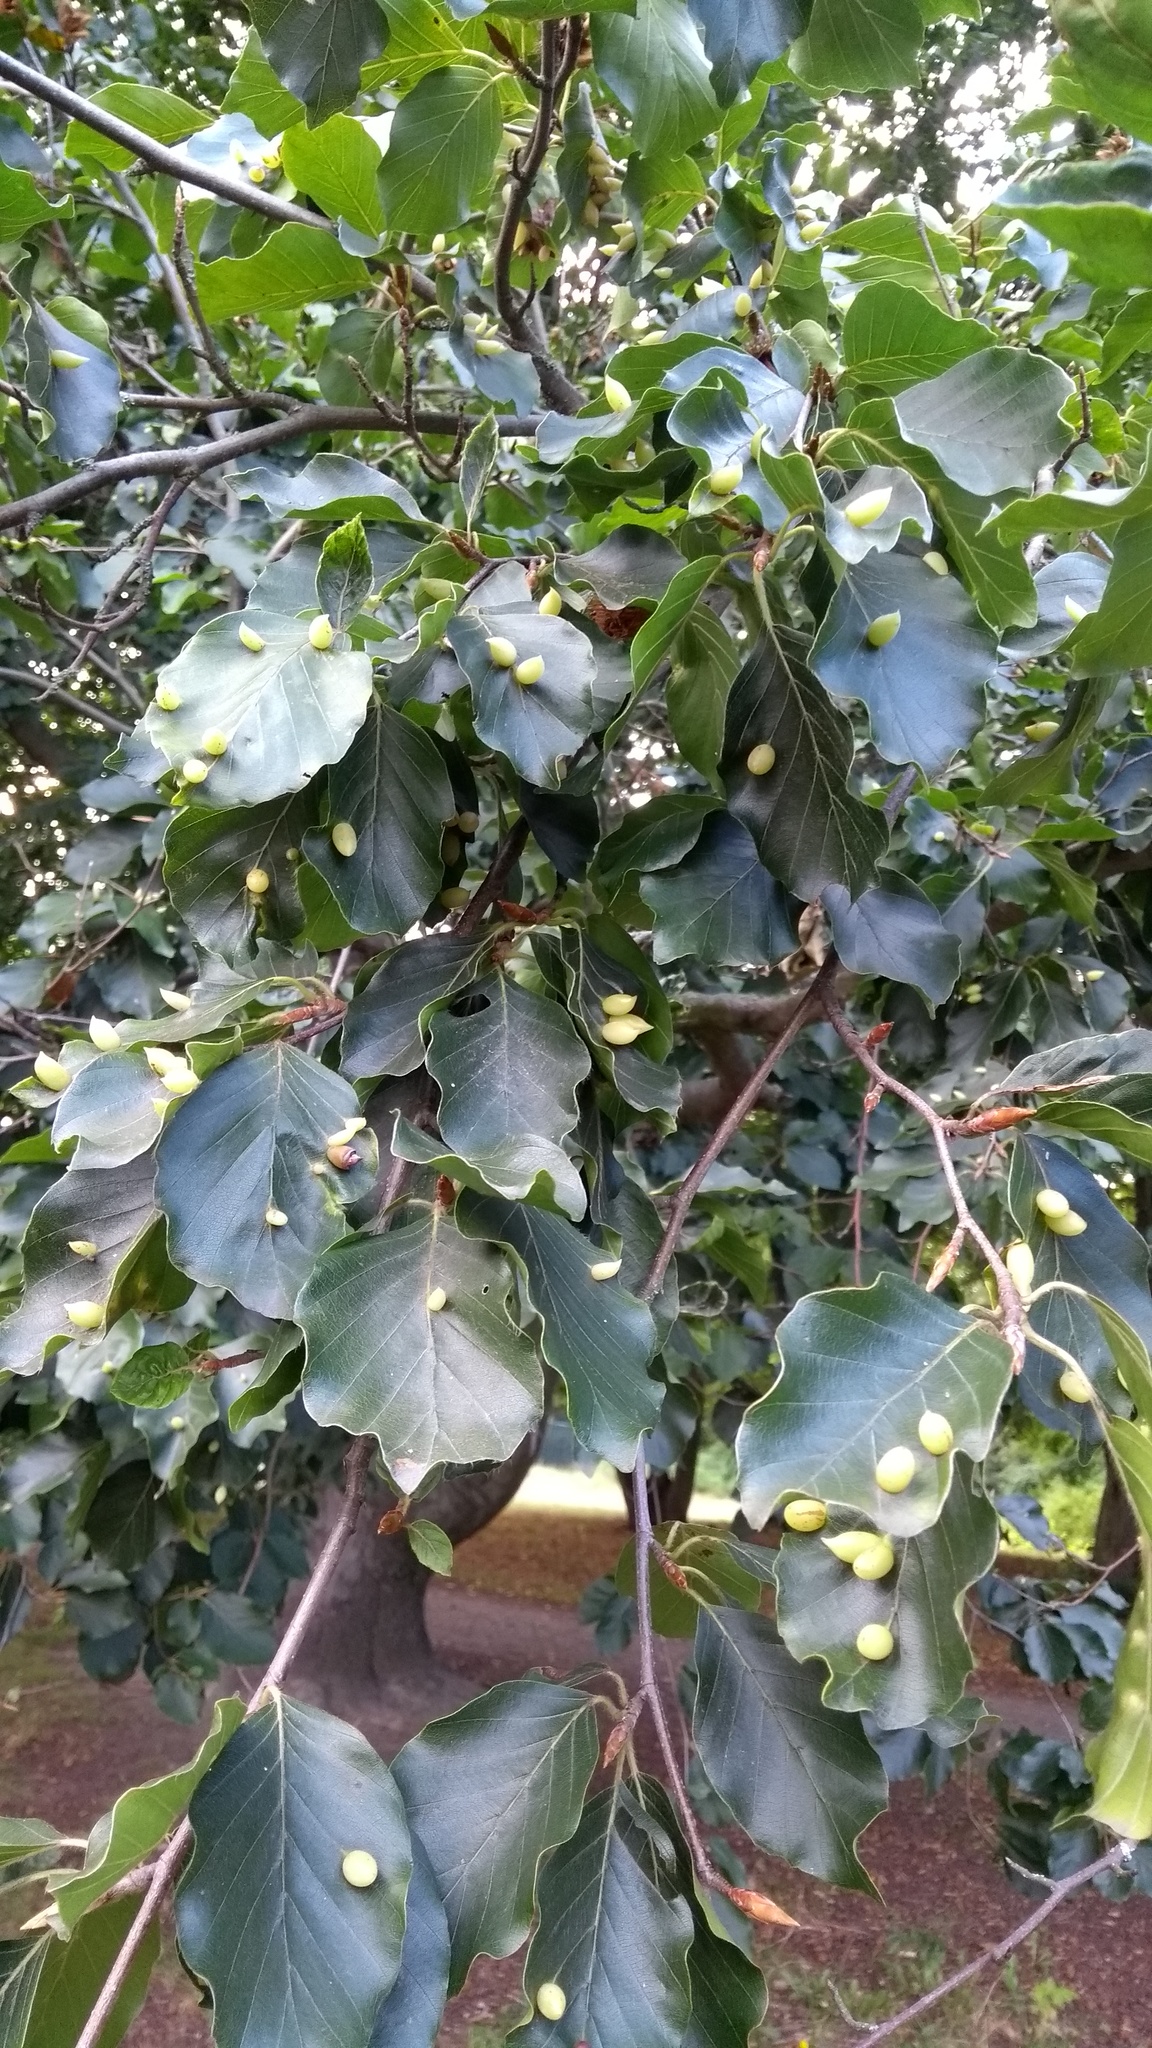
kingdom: Animalia
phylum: Arthropoda
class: Insecta
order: Diptera
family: Cecidomyiidae
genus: Mikiola
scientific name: Mikiola fagi
